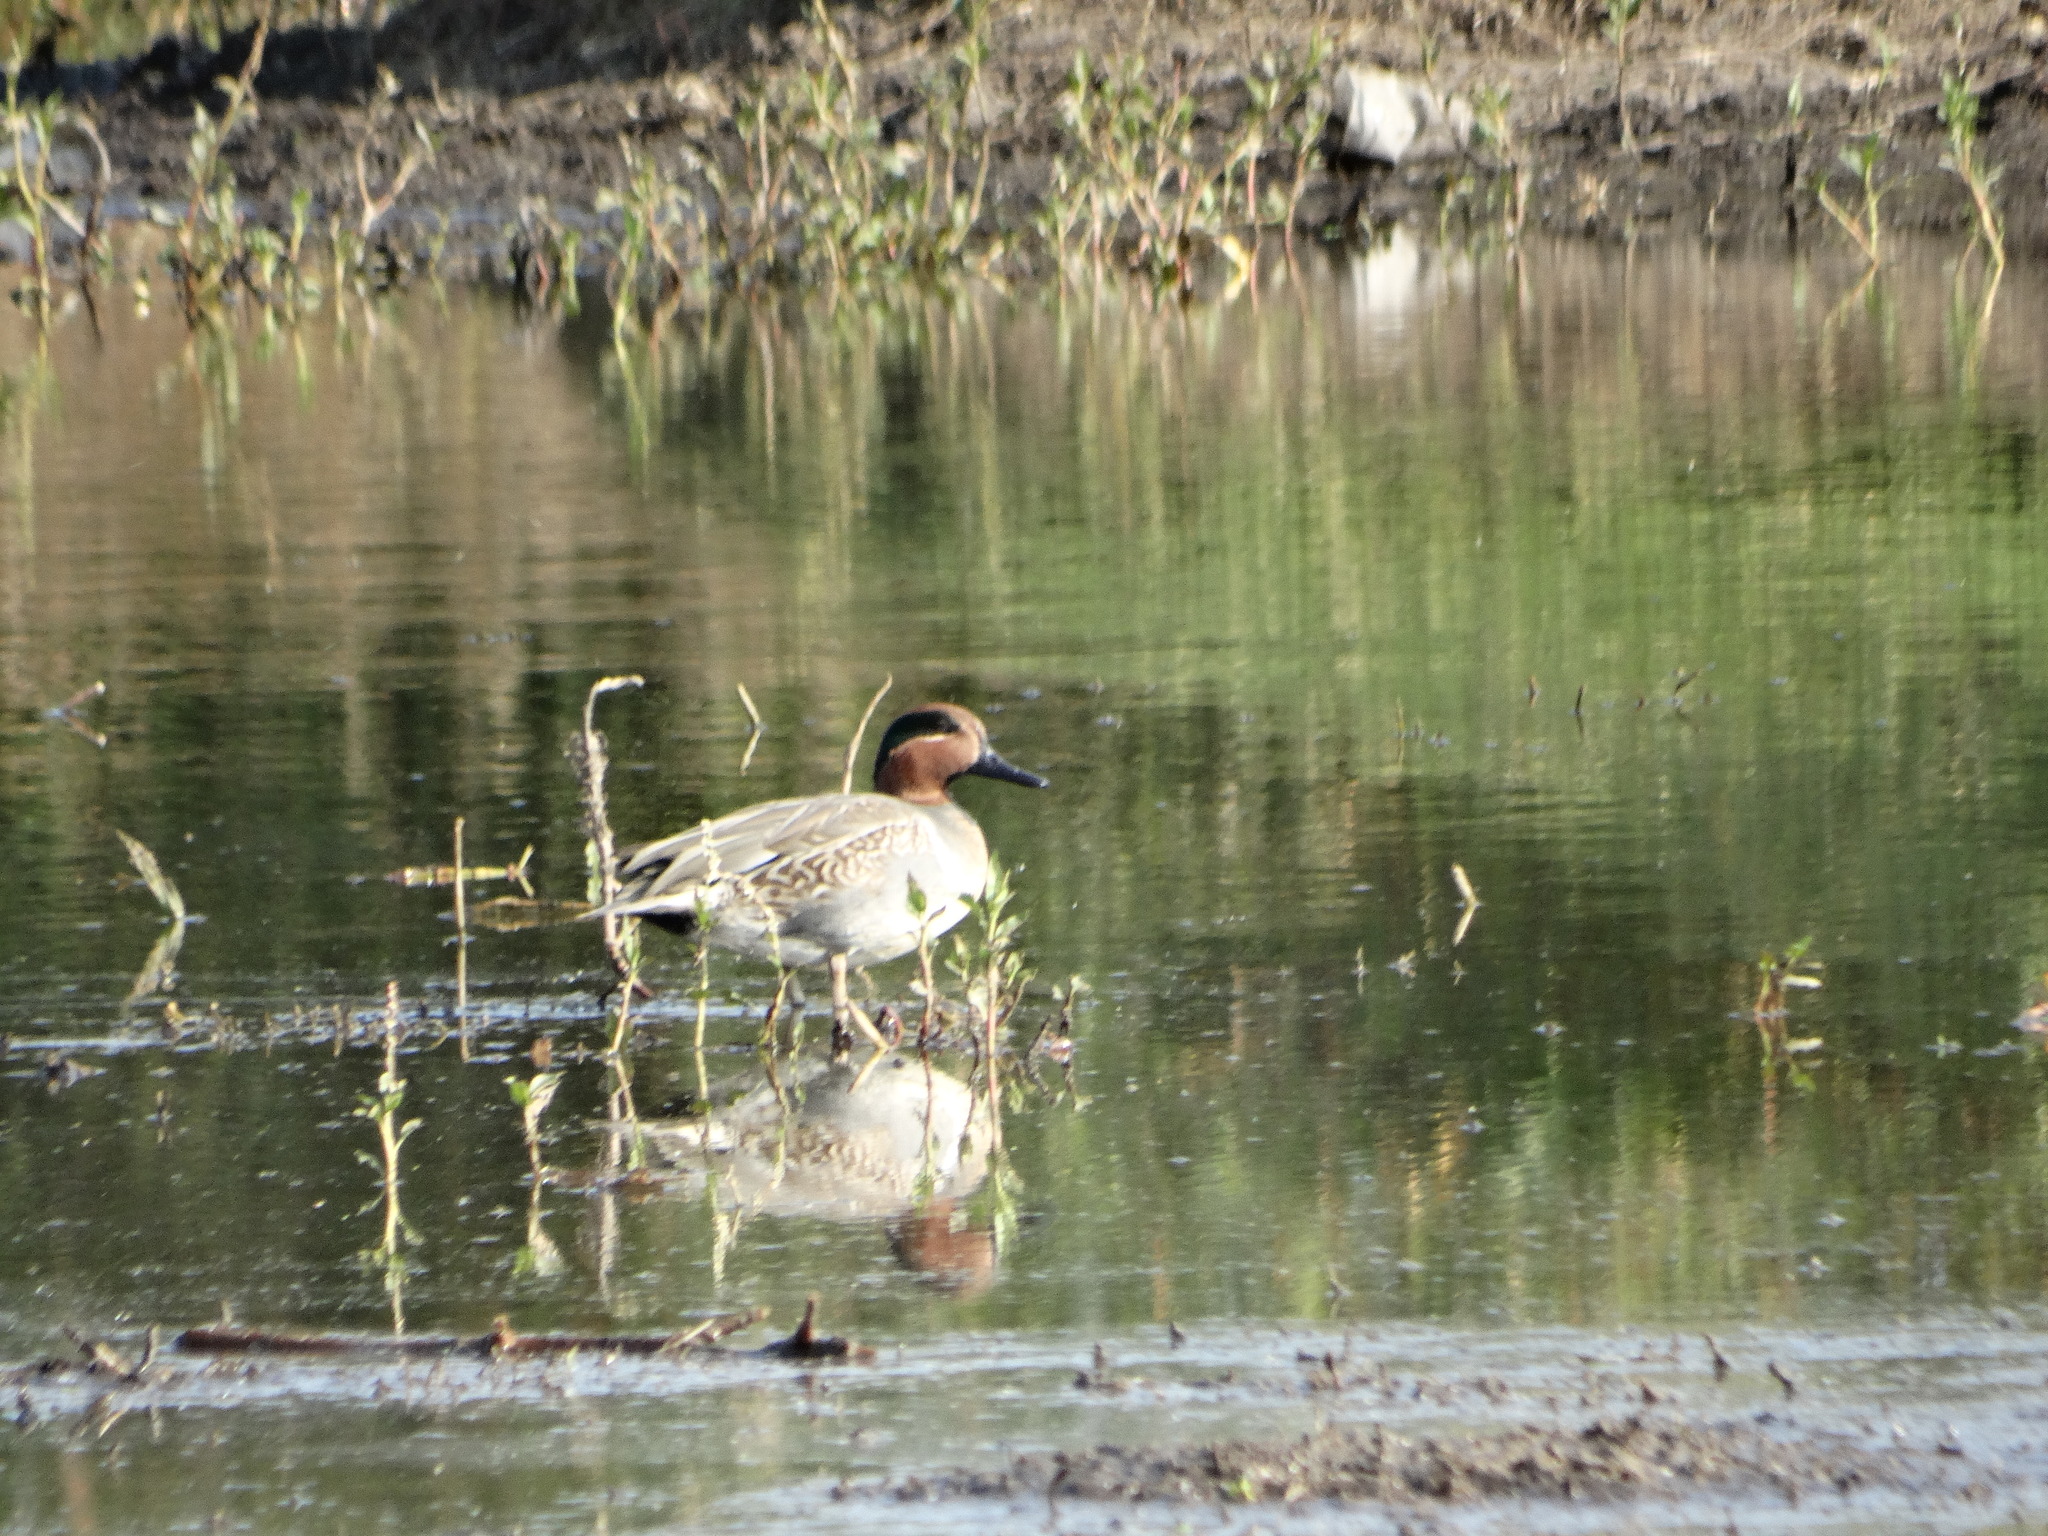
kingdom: Animalia
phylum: Chordata
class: Aves
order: Anseriformes
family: Anatidae
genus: Anas
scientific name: Anas crecca
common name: Eurasian teal
